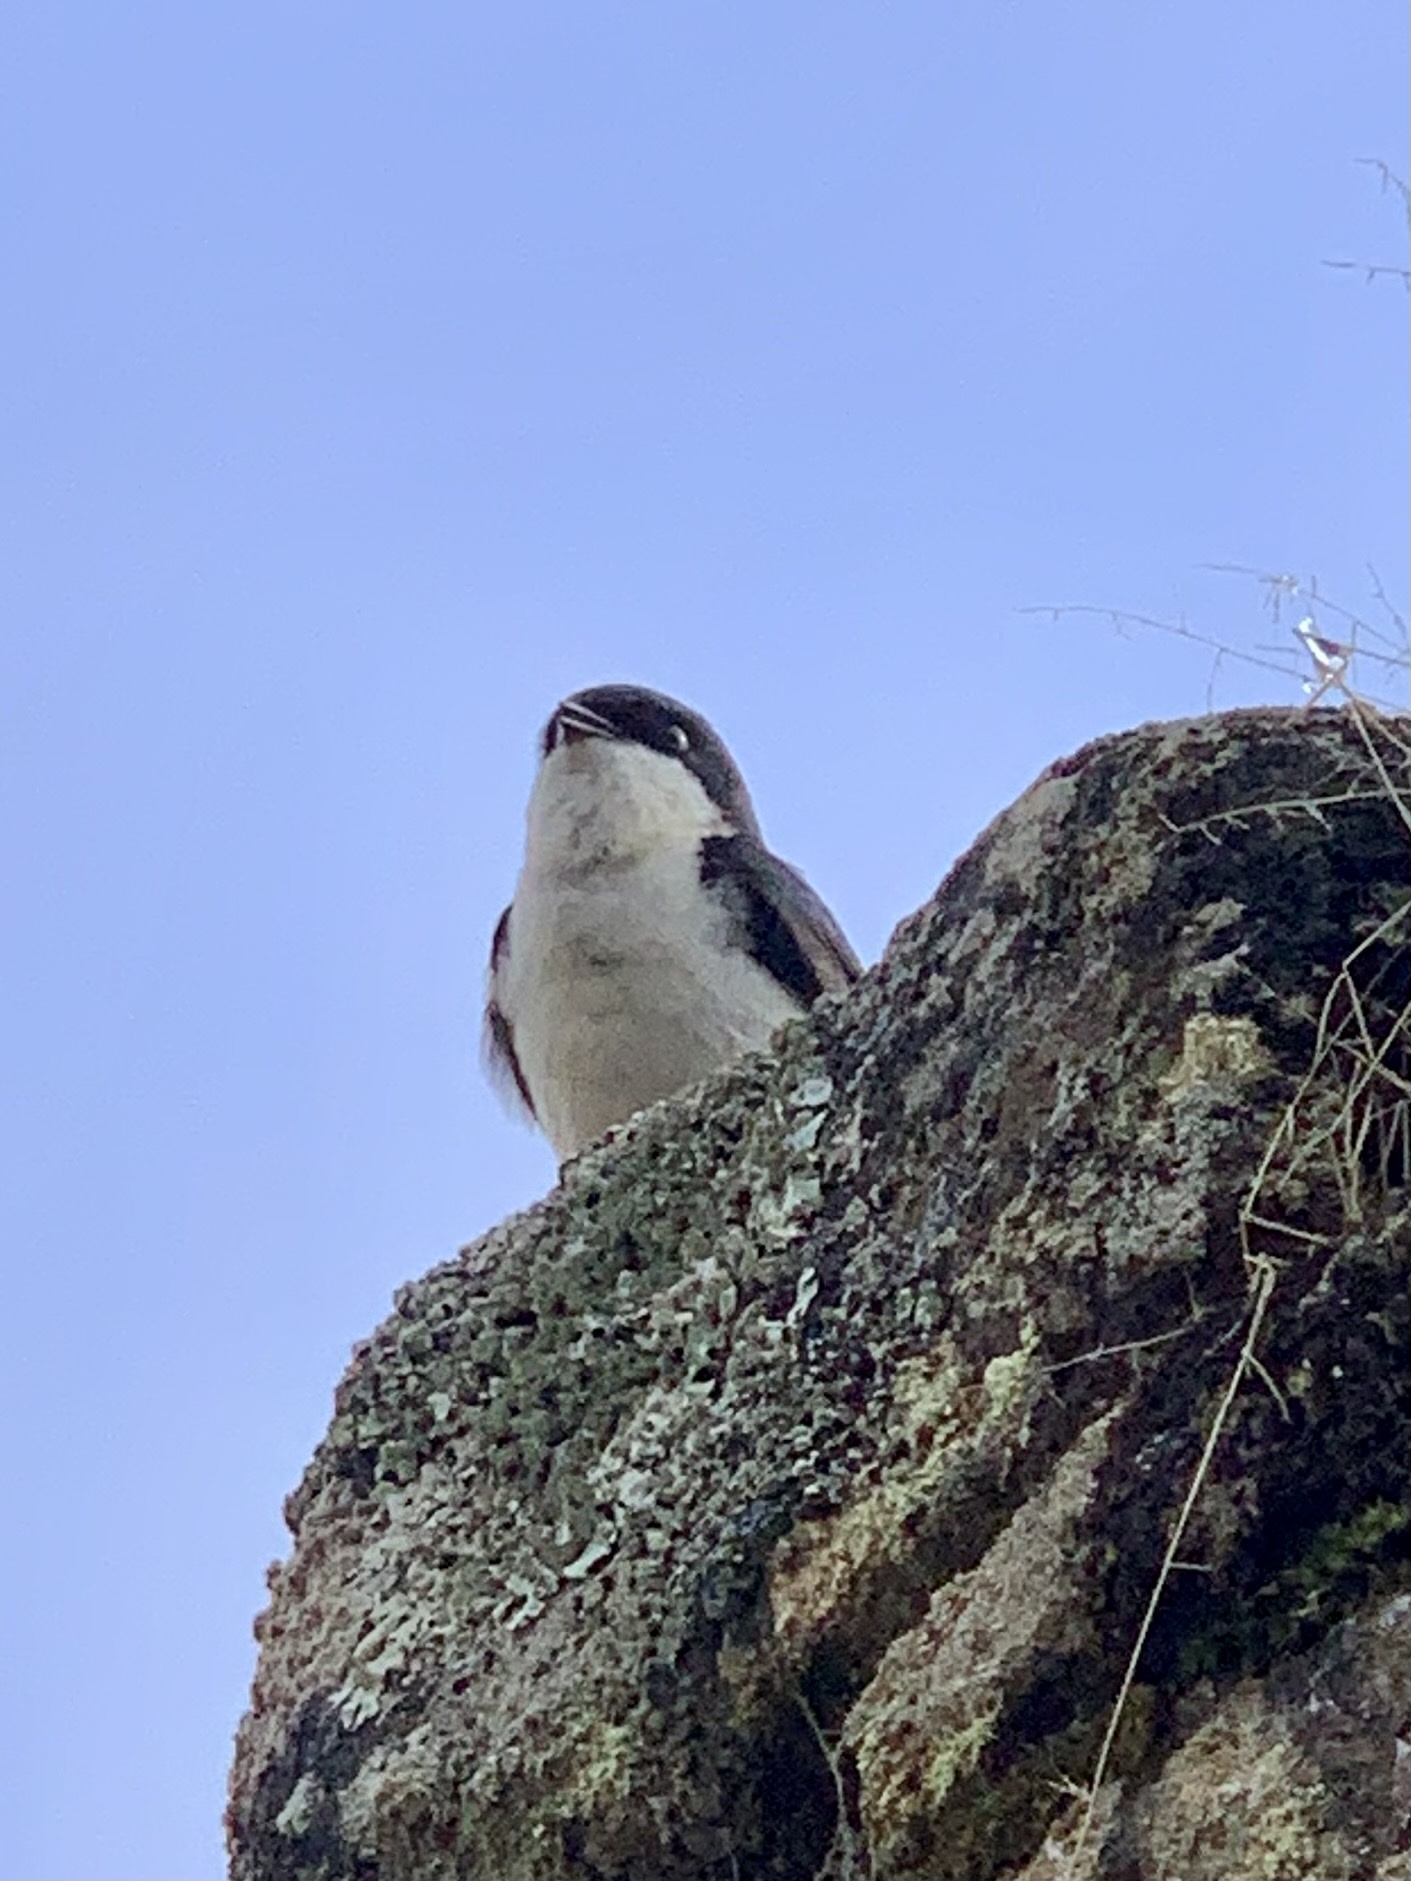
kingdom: Animalia
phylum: Chordata
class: Aves
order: Passeriformes
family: Hirundinidae
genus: Notiochelidon
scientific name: Notiochelidon cyanoleuca
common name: Blue-and-white swallow
